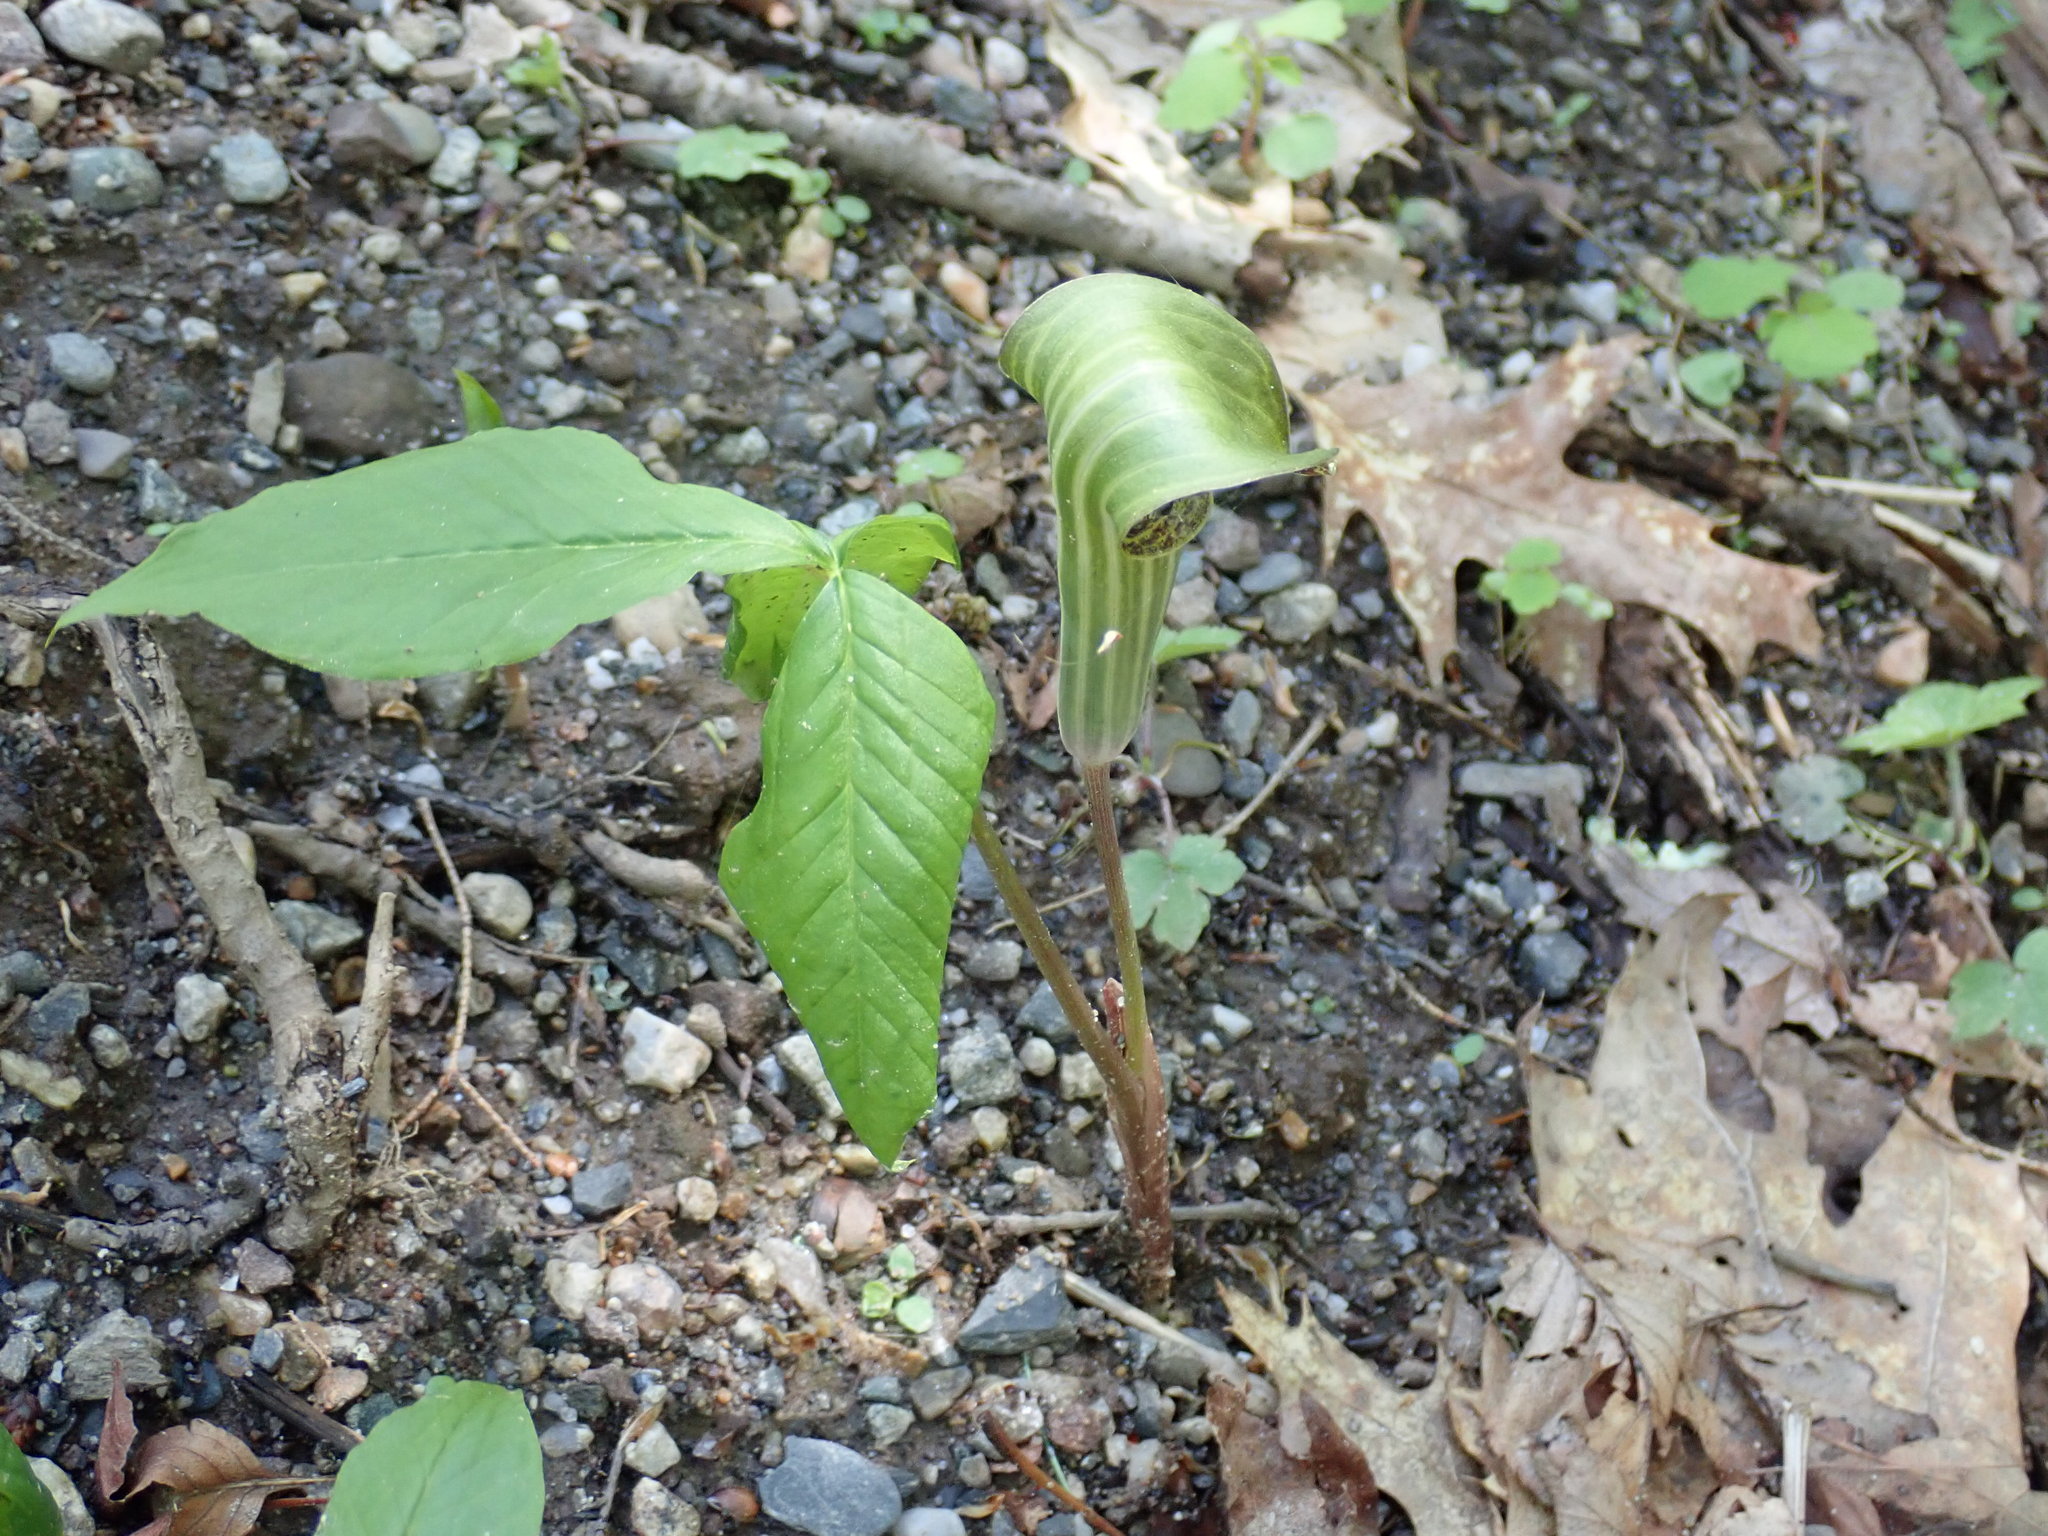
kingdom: Plantae
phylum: Tracheophyta
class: Liliopsida
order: Alismatales
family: Araceae
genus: Arisaema
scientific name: Arisaema triphyllum
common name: Jack-in-the-pulpit
